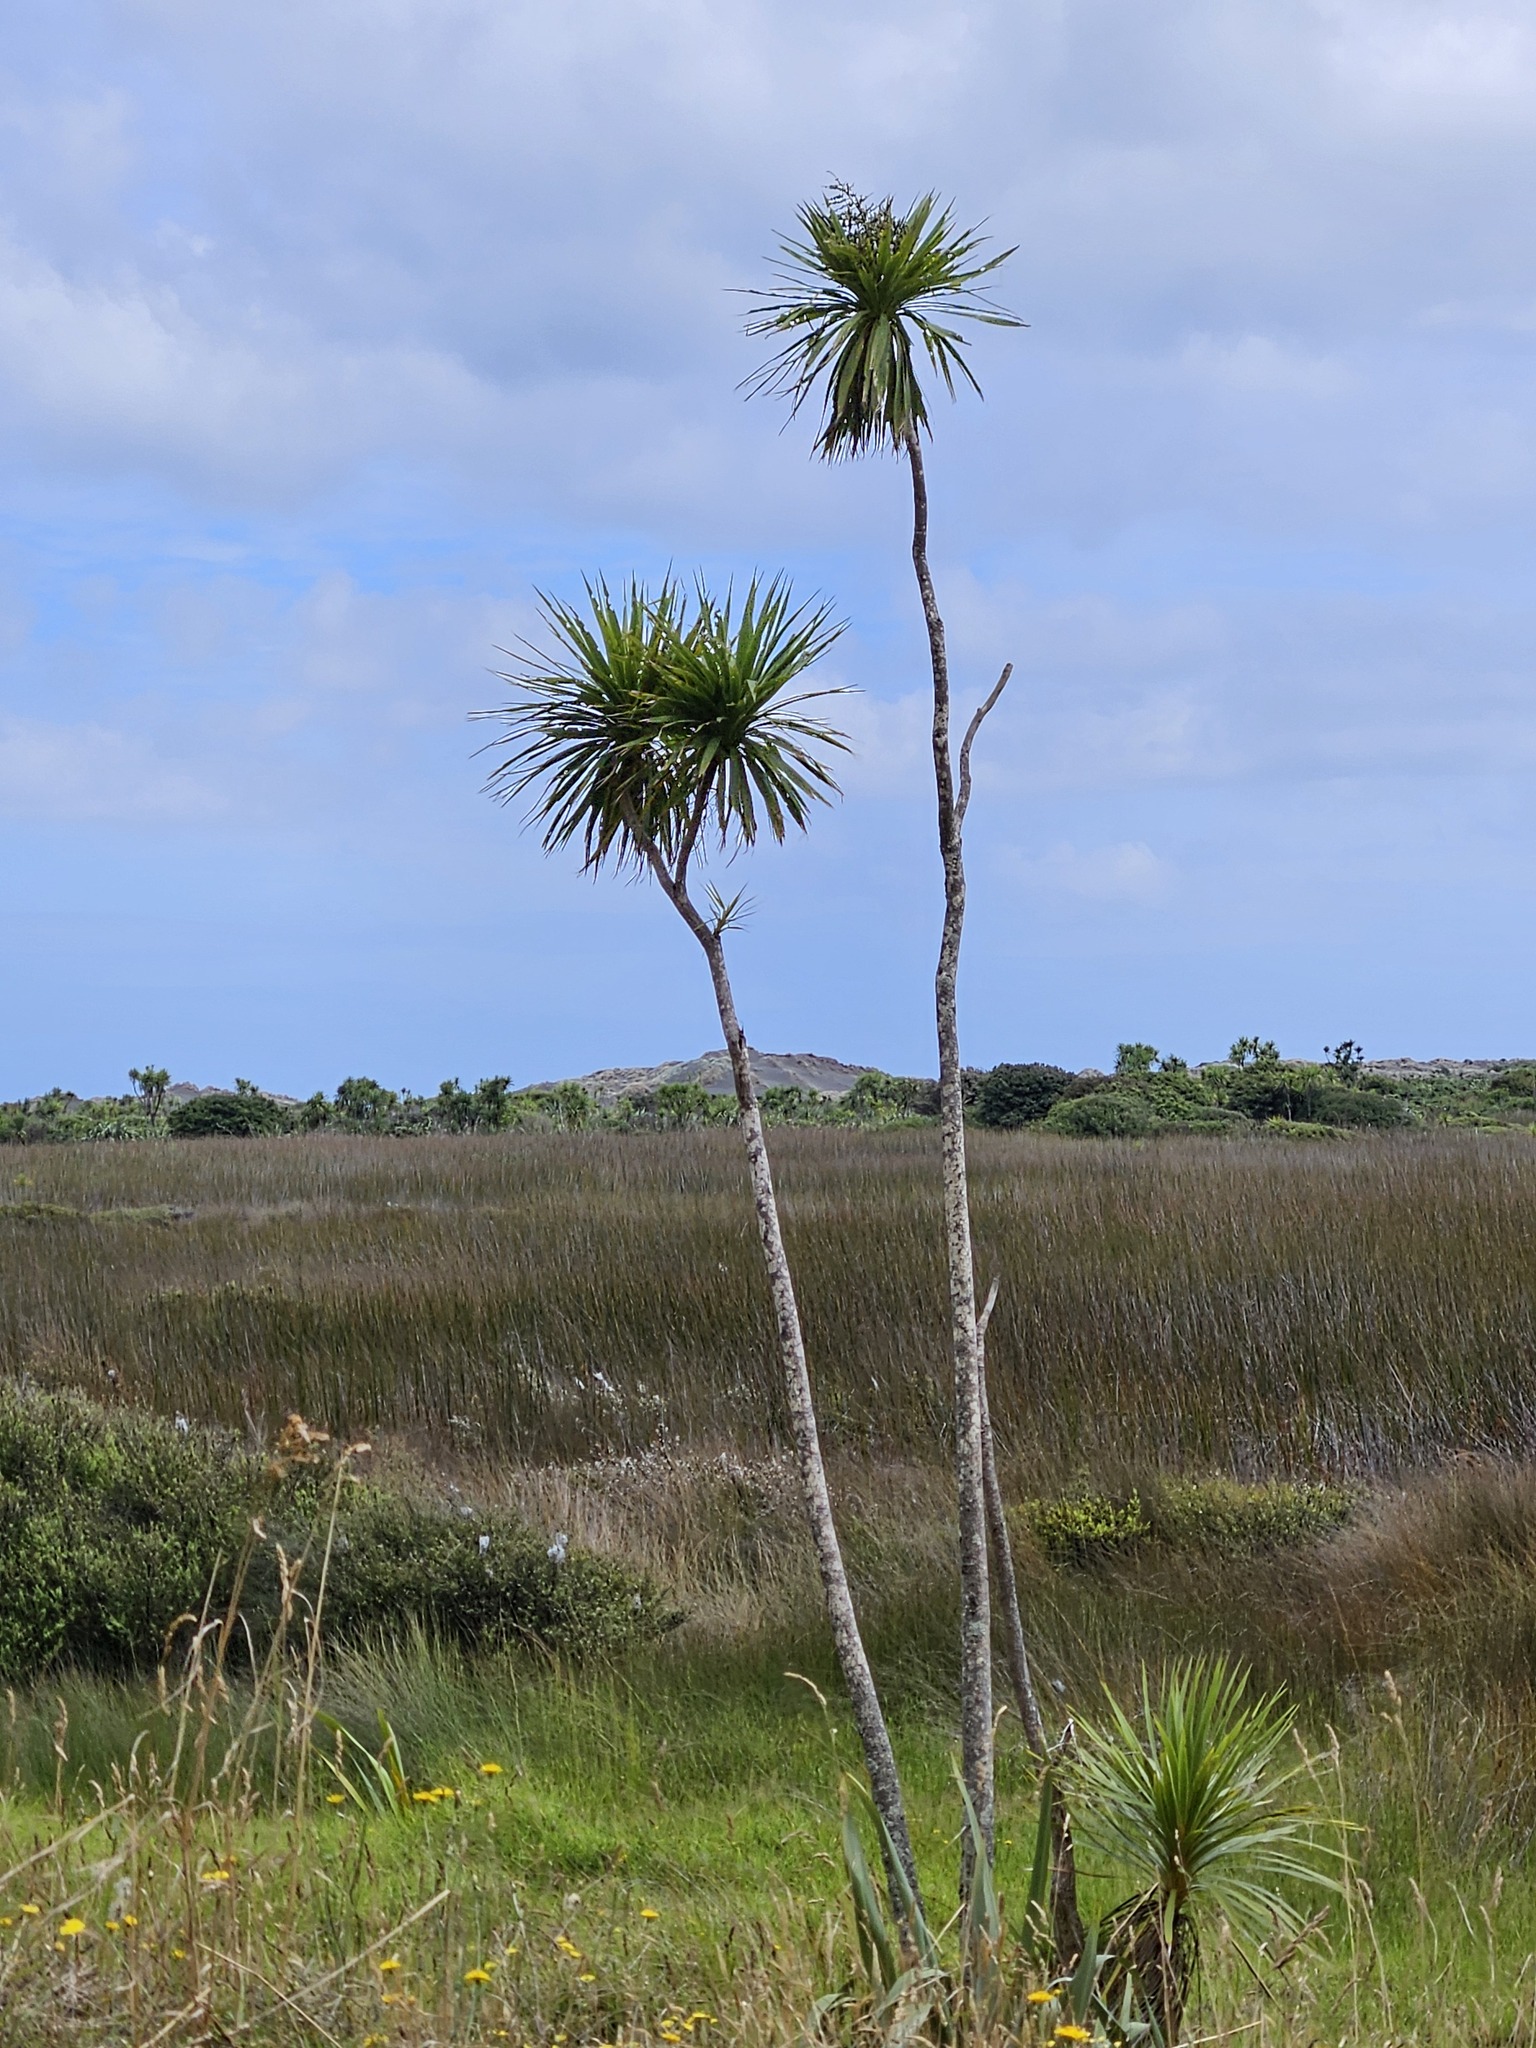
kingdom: Plantae
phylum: Tracheophyta
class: Liliopsida
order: Asparagales
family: Asparagaceae
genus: Cordyline
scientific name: Cordyline australis
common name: Cabbage-palm
